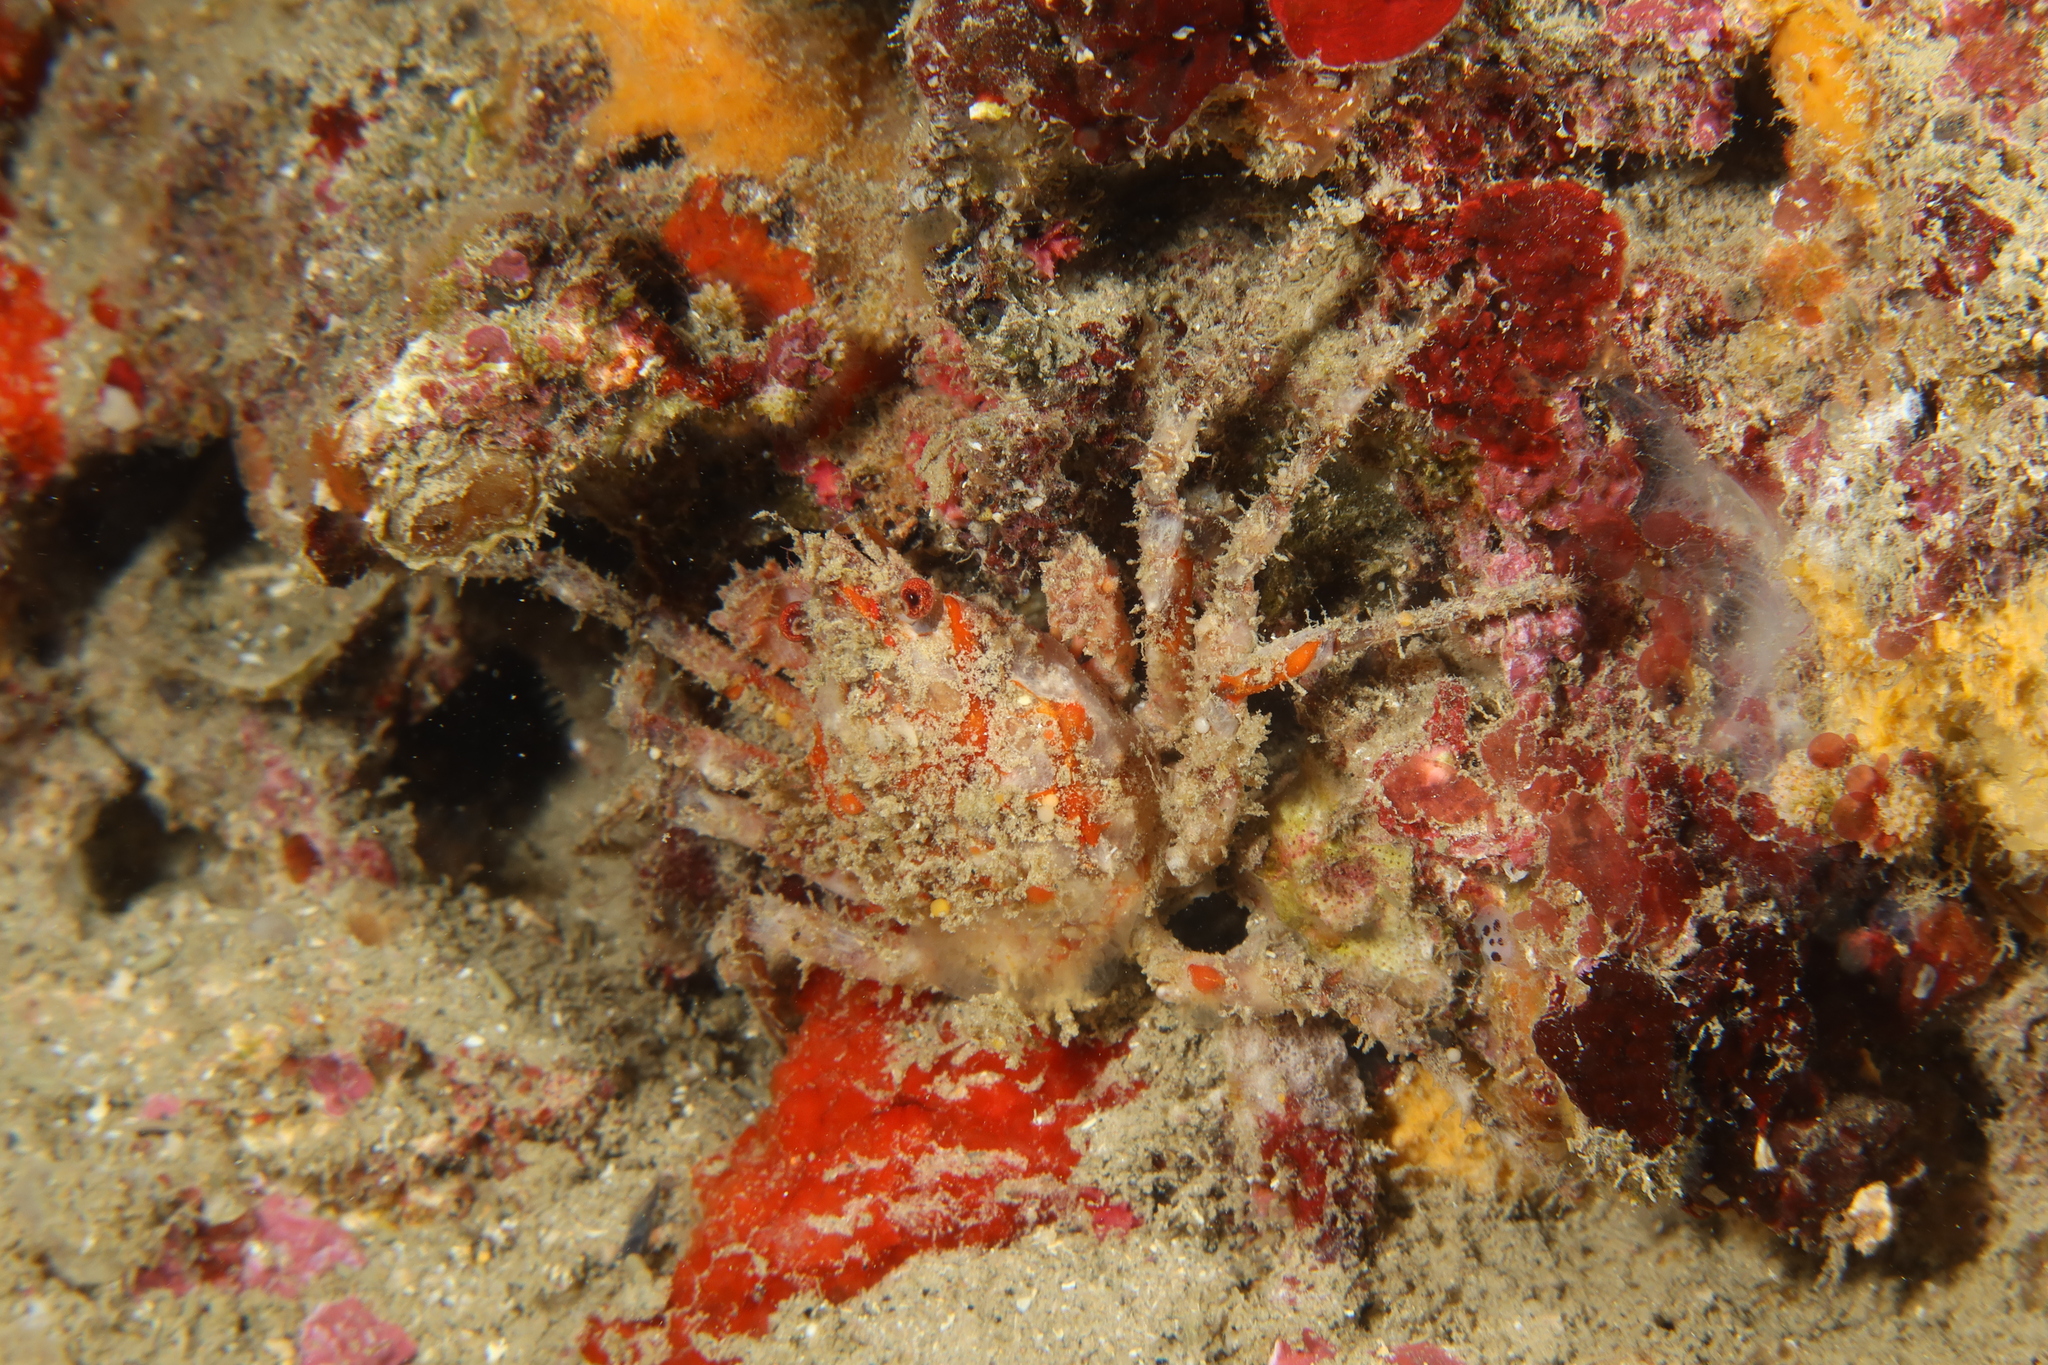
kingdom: Animalia
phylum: Arthropoda
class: Malacostraca
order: Decapoda
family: Epialtidae
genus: Herbstia
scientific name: Herbstia condyliata
